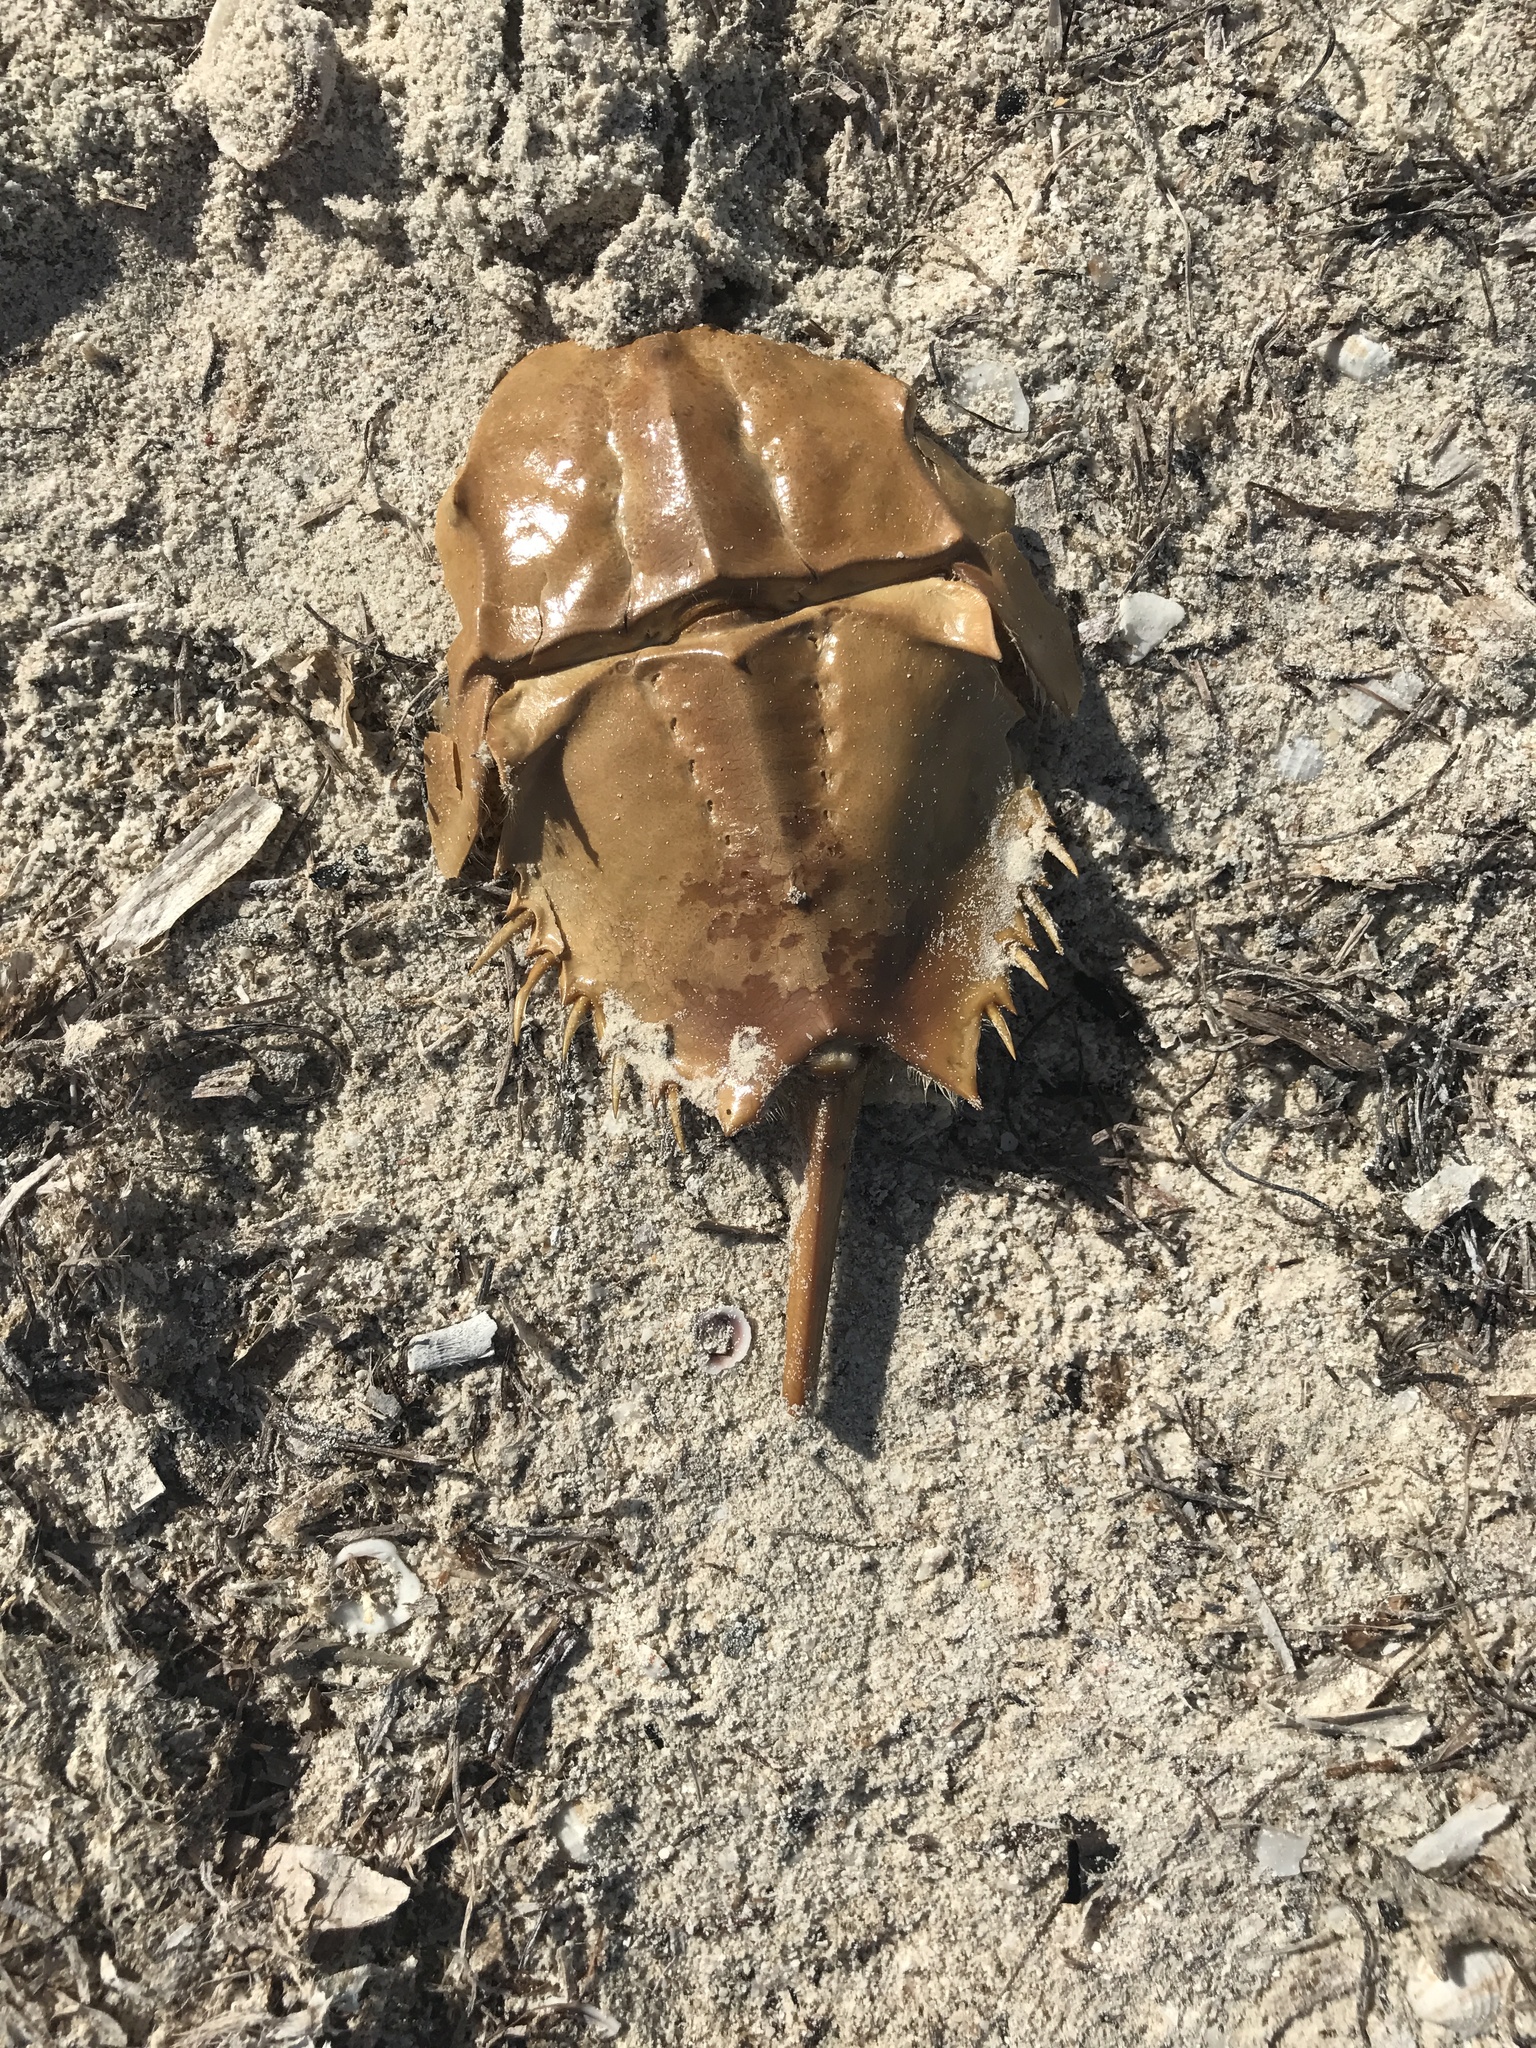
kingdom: Animalia
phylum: Arthropoda
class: Merostomata
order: Xiphosurida
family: Limulidae
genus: Limulus
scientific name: Limulus polyphemus
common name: Horseshoe crab
